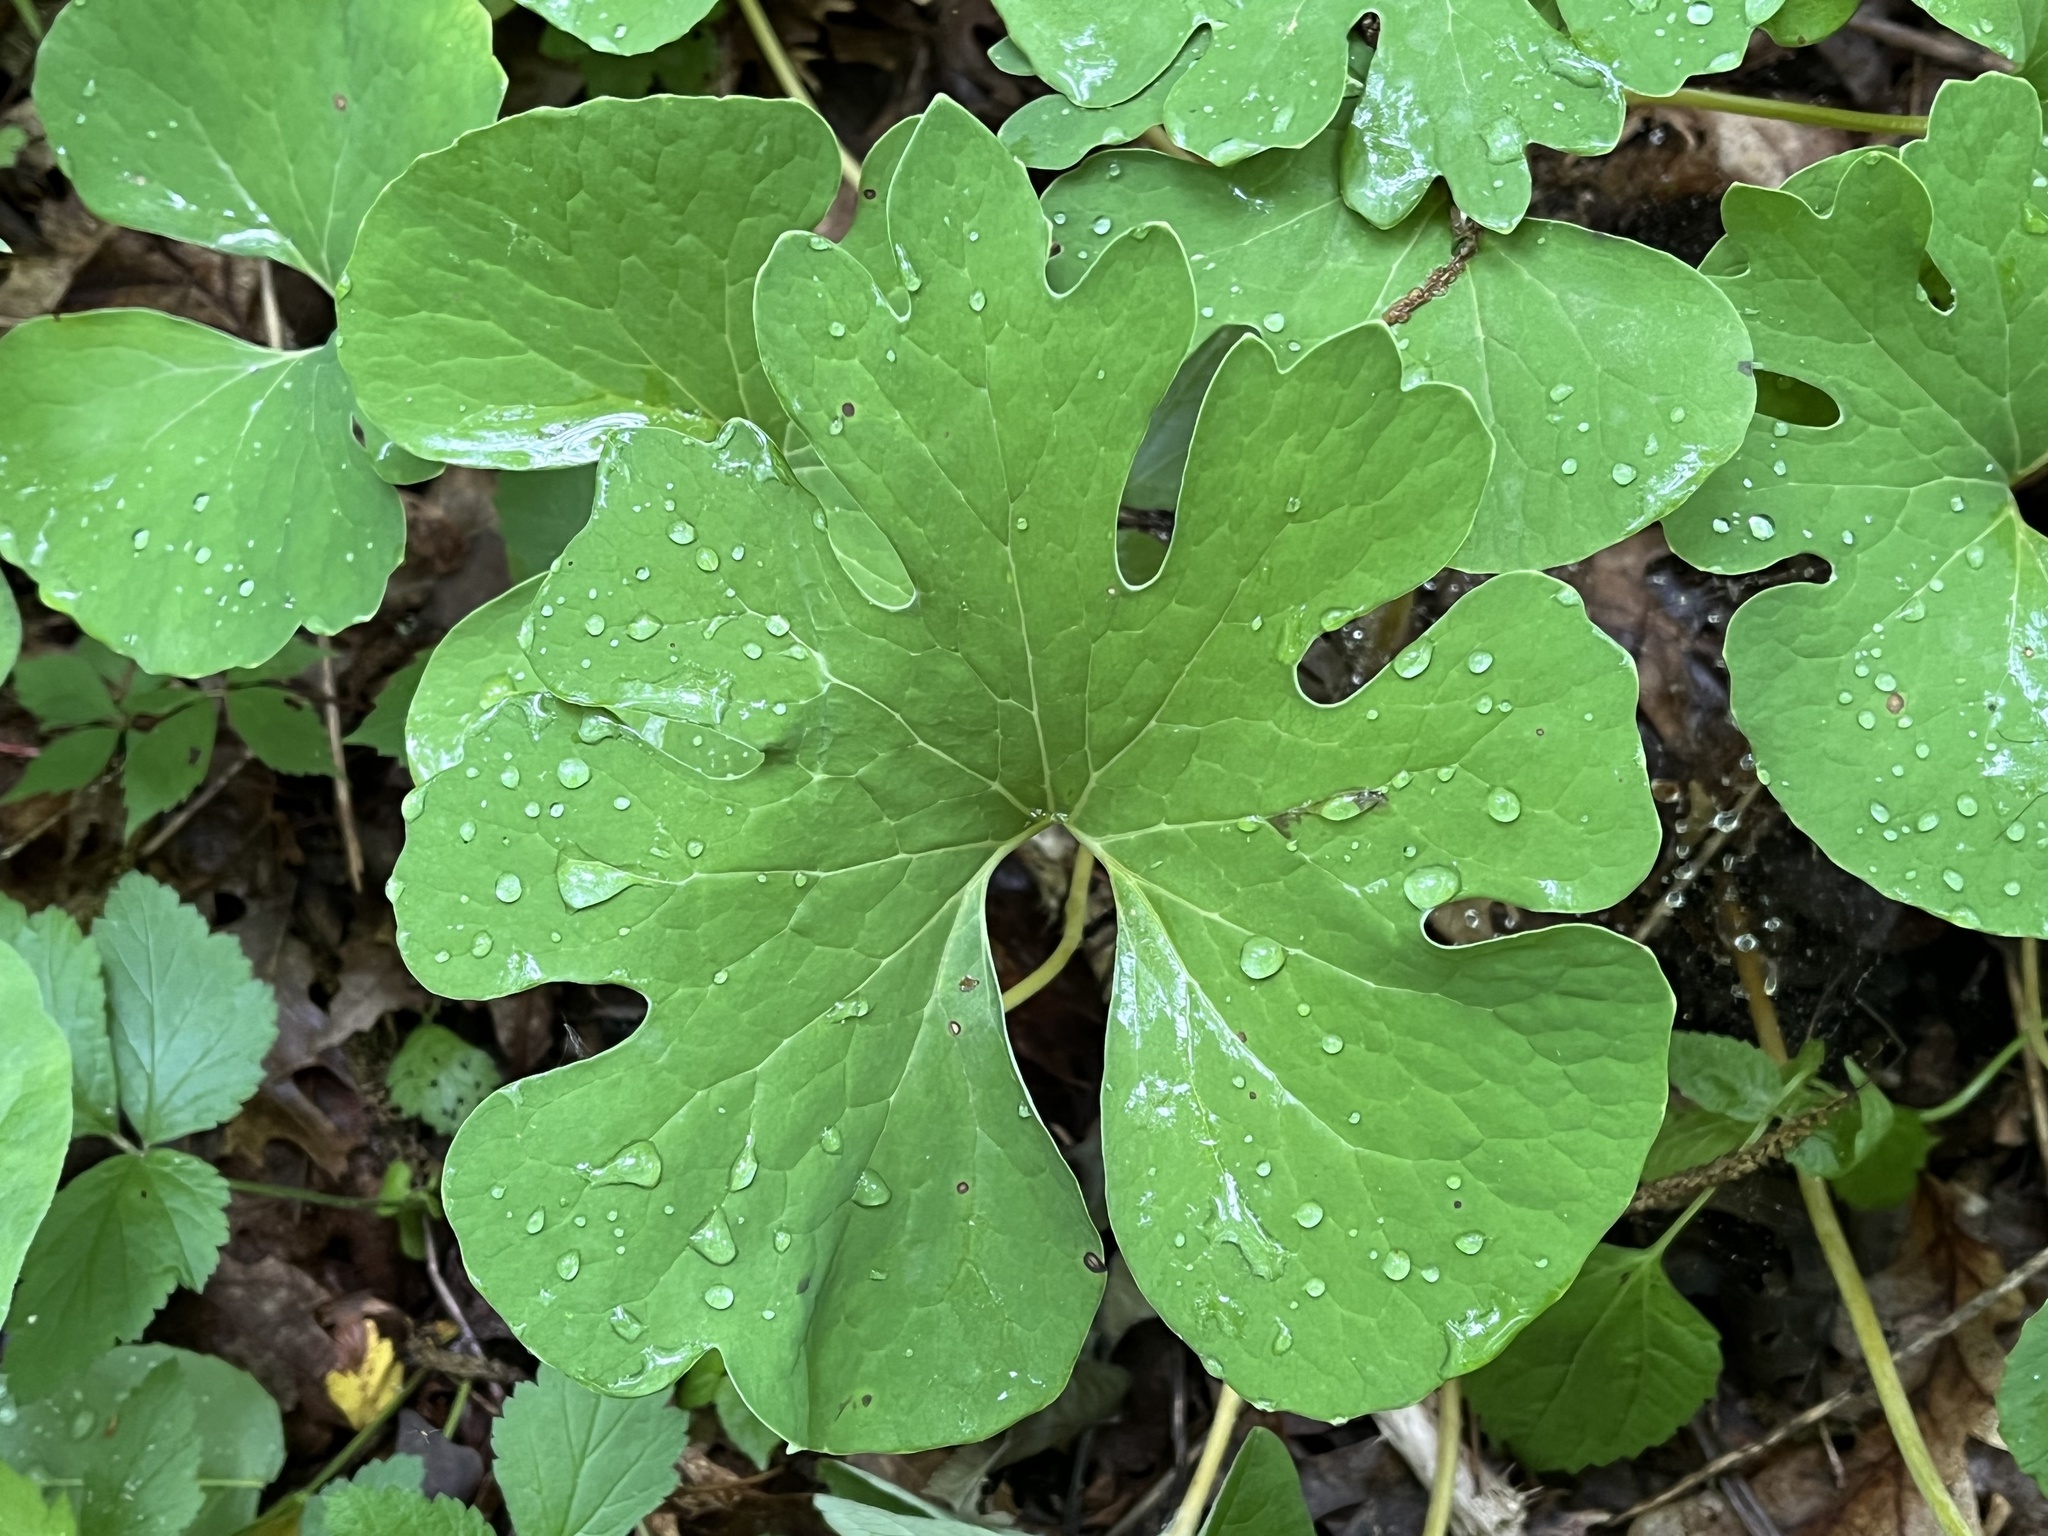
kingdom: Plantae
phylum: Tracheophyta
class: Magnoliopsida
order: Ranunculales
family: Papaveraceae
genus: Sanguinaria
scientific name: Sanguinaria canadensis
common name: Bloodroot
